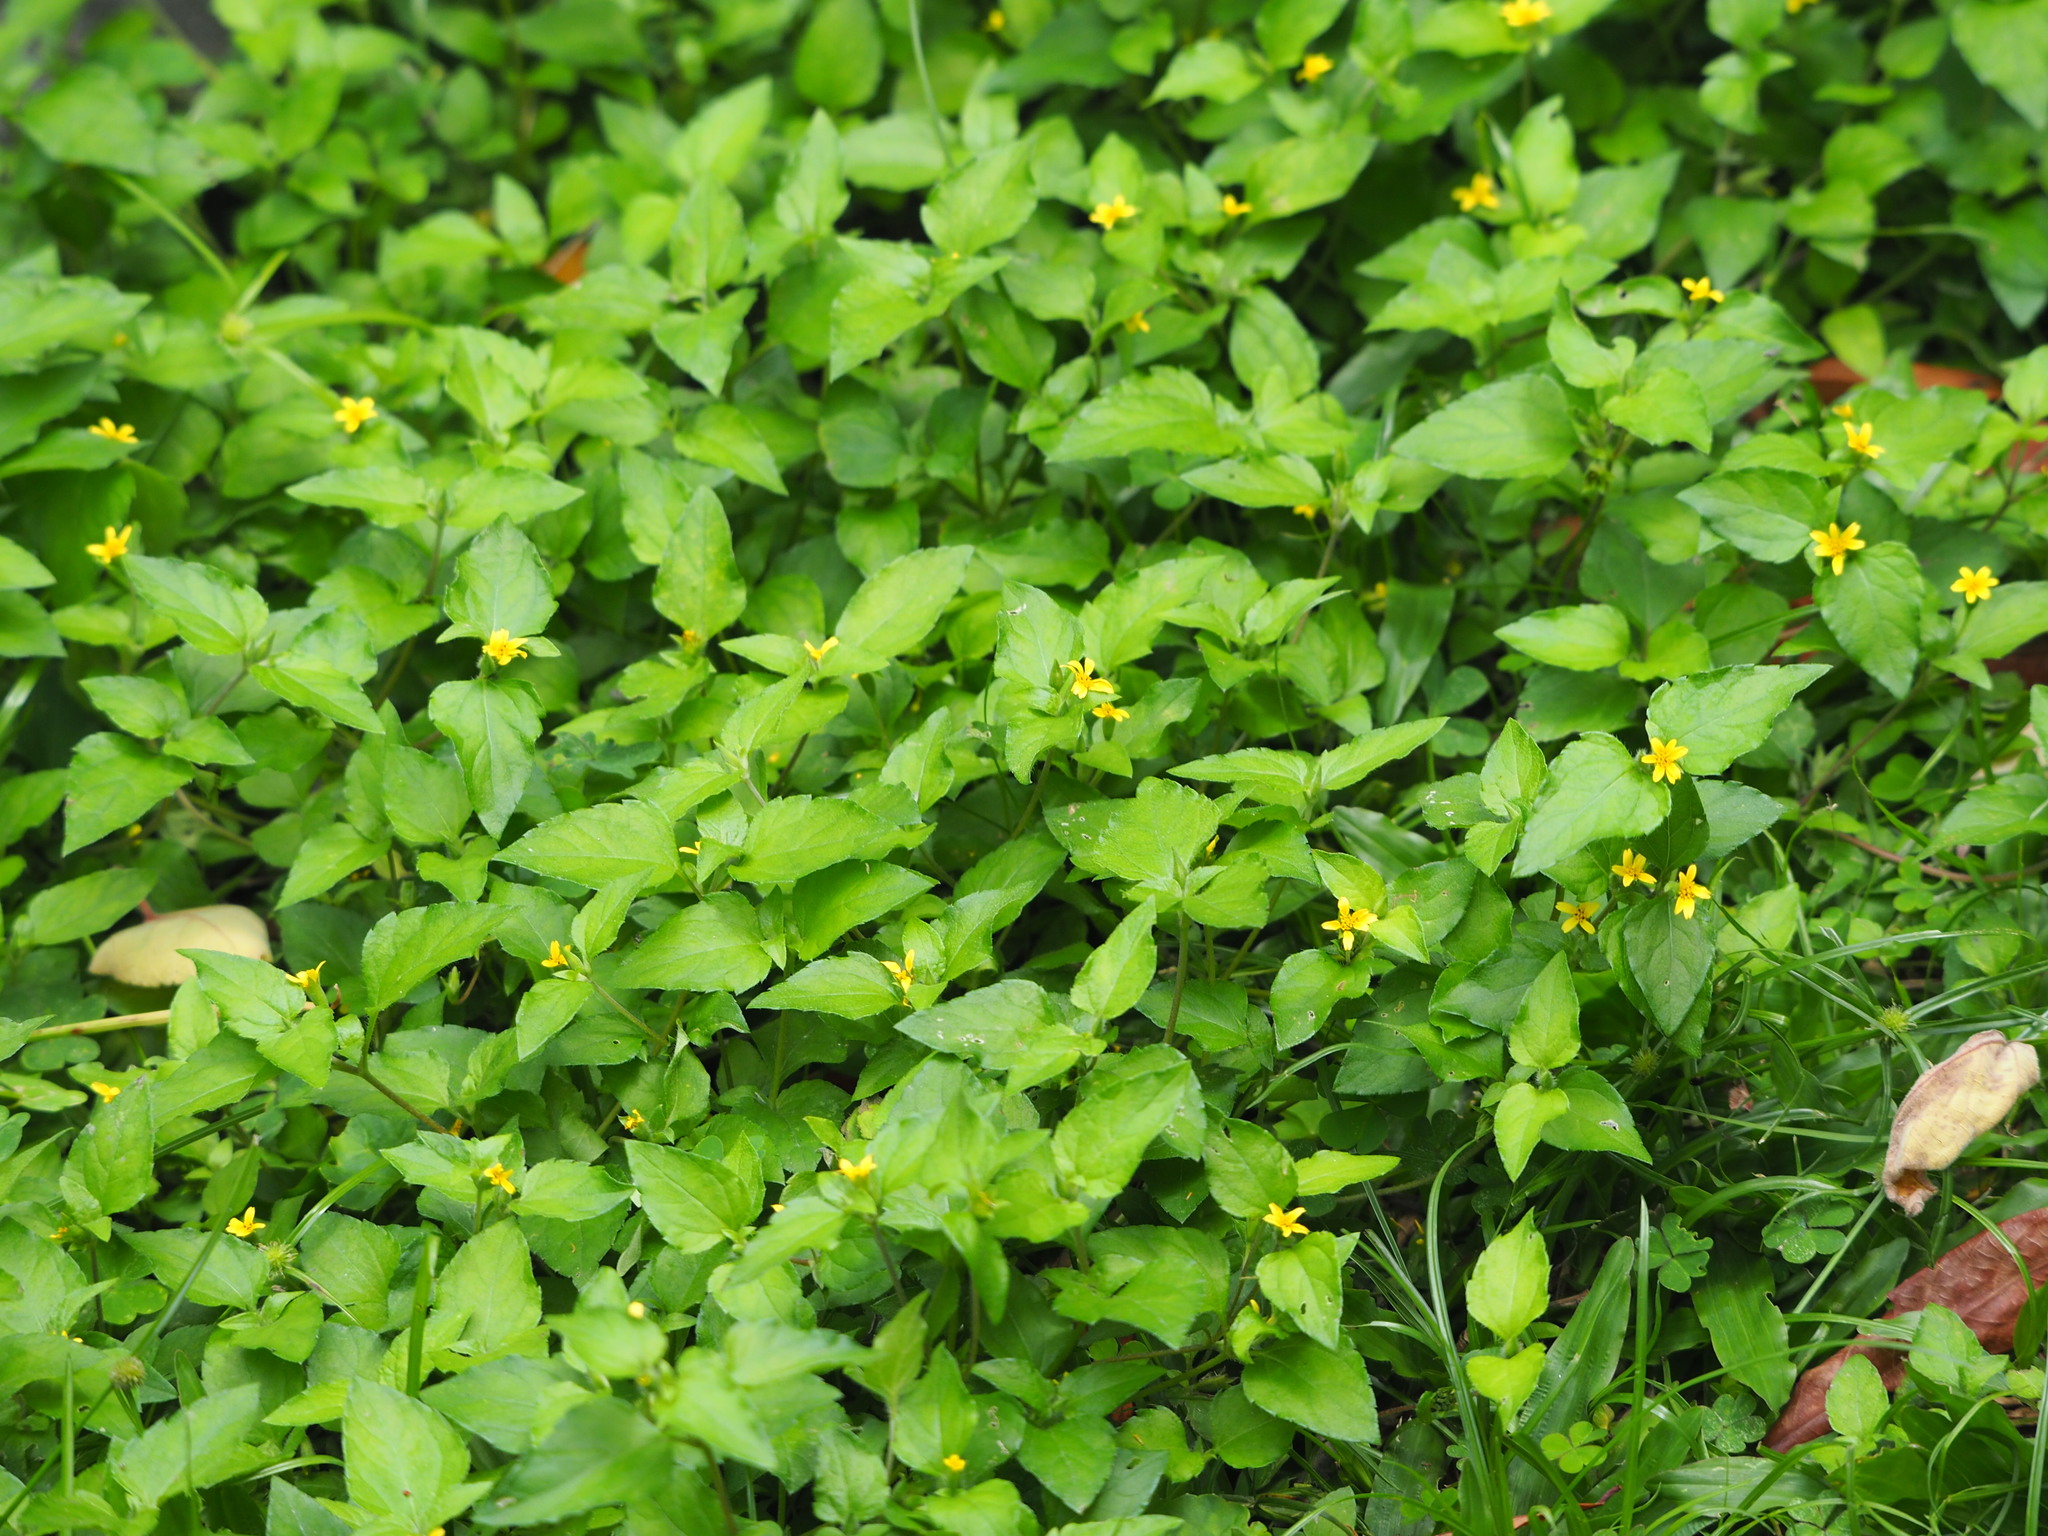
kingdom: Plantae
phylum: Tracheophyta
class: Magnoliopsida
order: Asterales
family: Asteraceae
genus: Calyptocarpus
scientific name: Calyptocarpus vialis
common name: Straggler daisy
